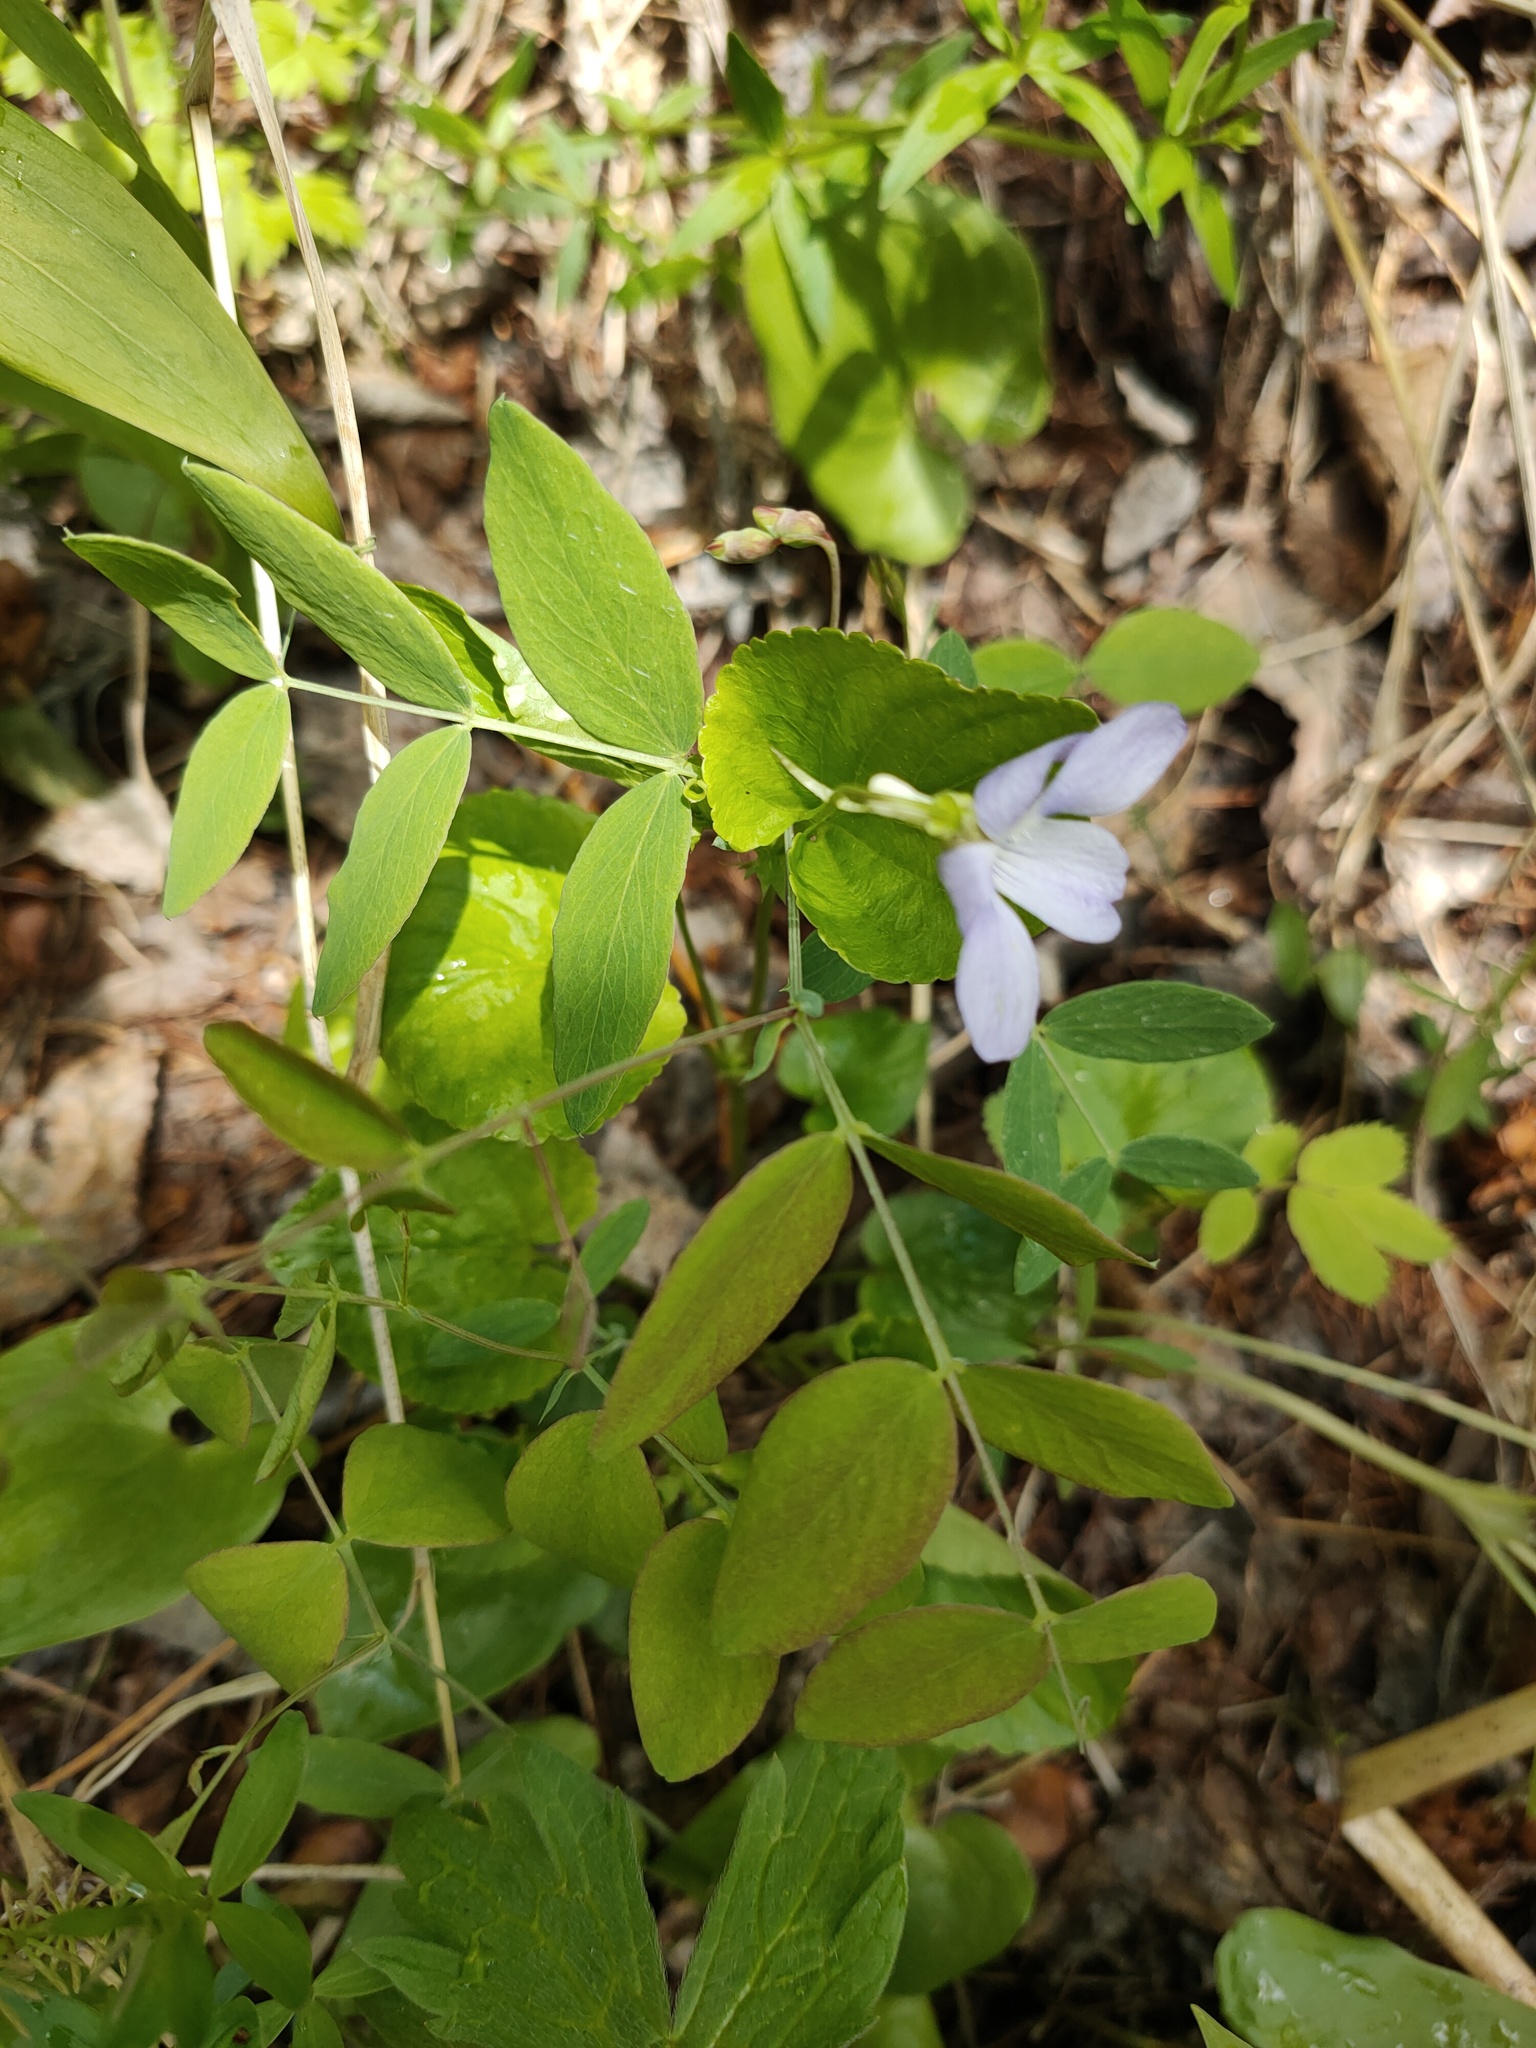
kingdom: Plantae
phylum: Tracheophyta
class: Magnoliopsida
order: Fabales
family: Fabaceae
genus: Lathyrus
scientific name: Lathyrus humilis
